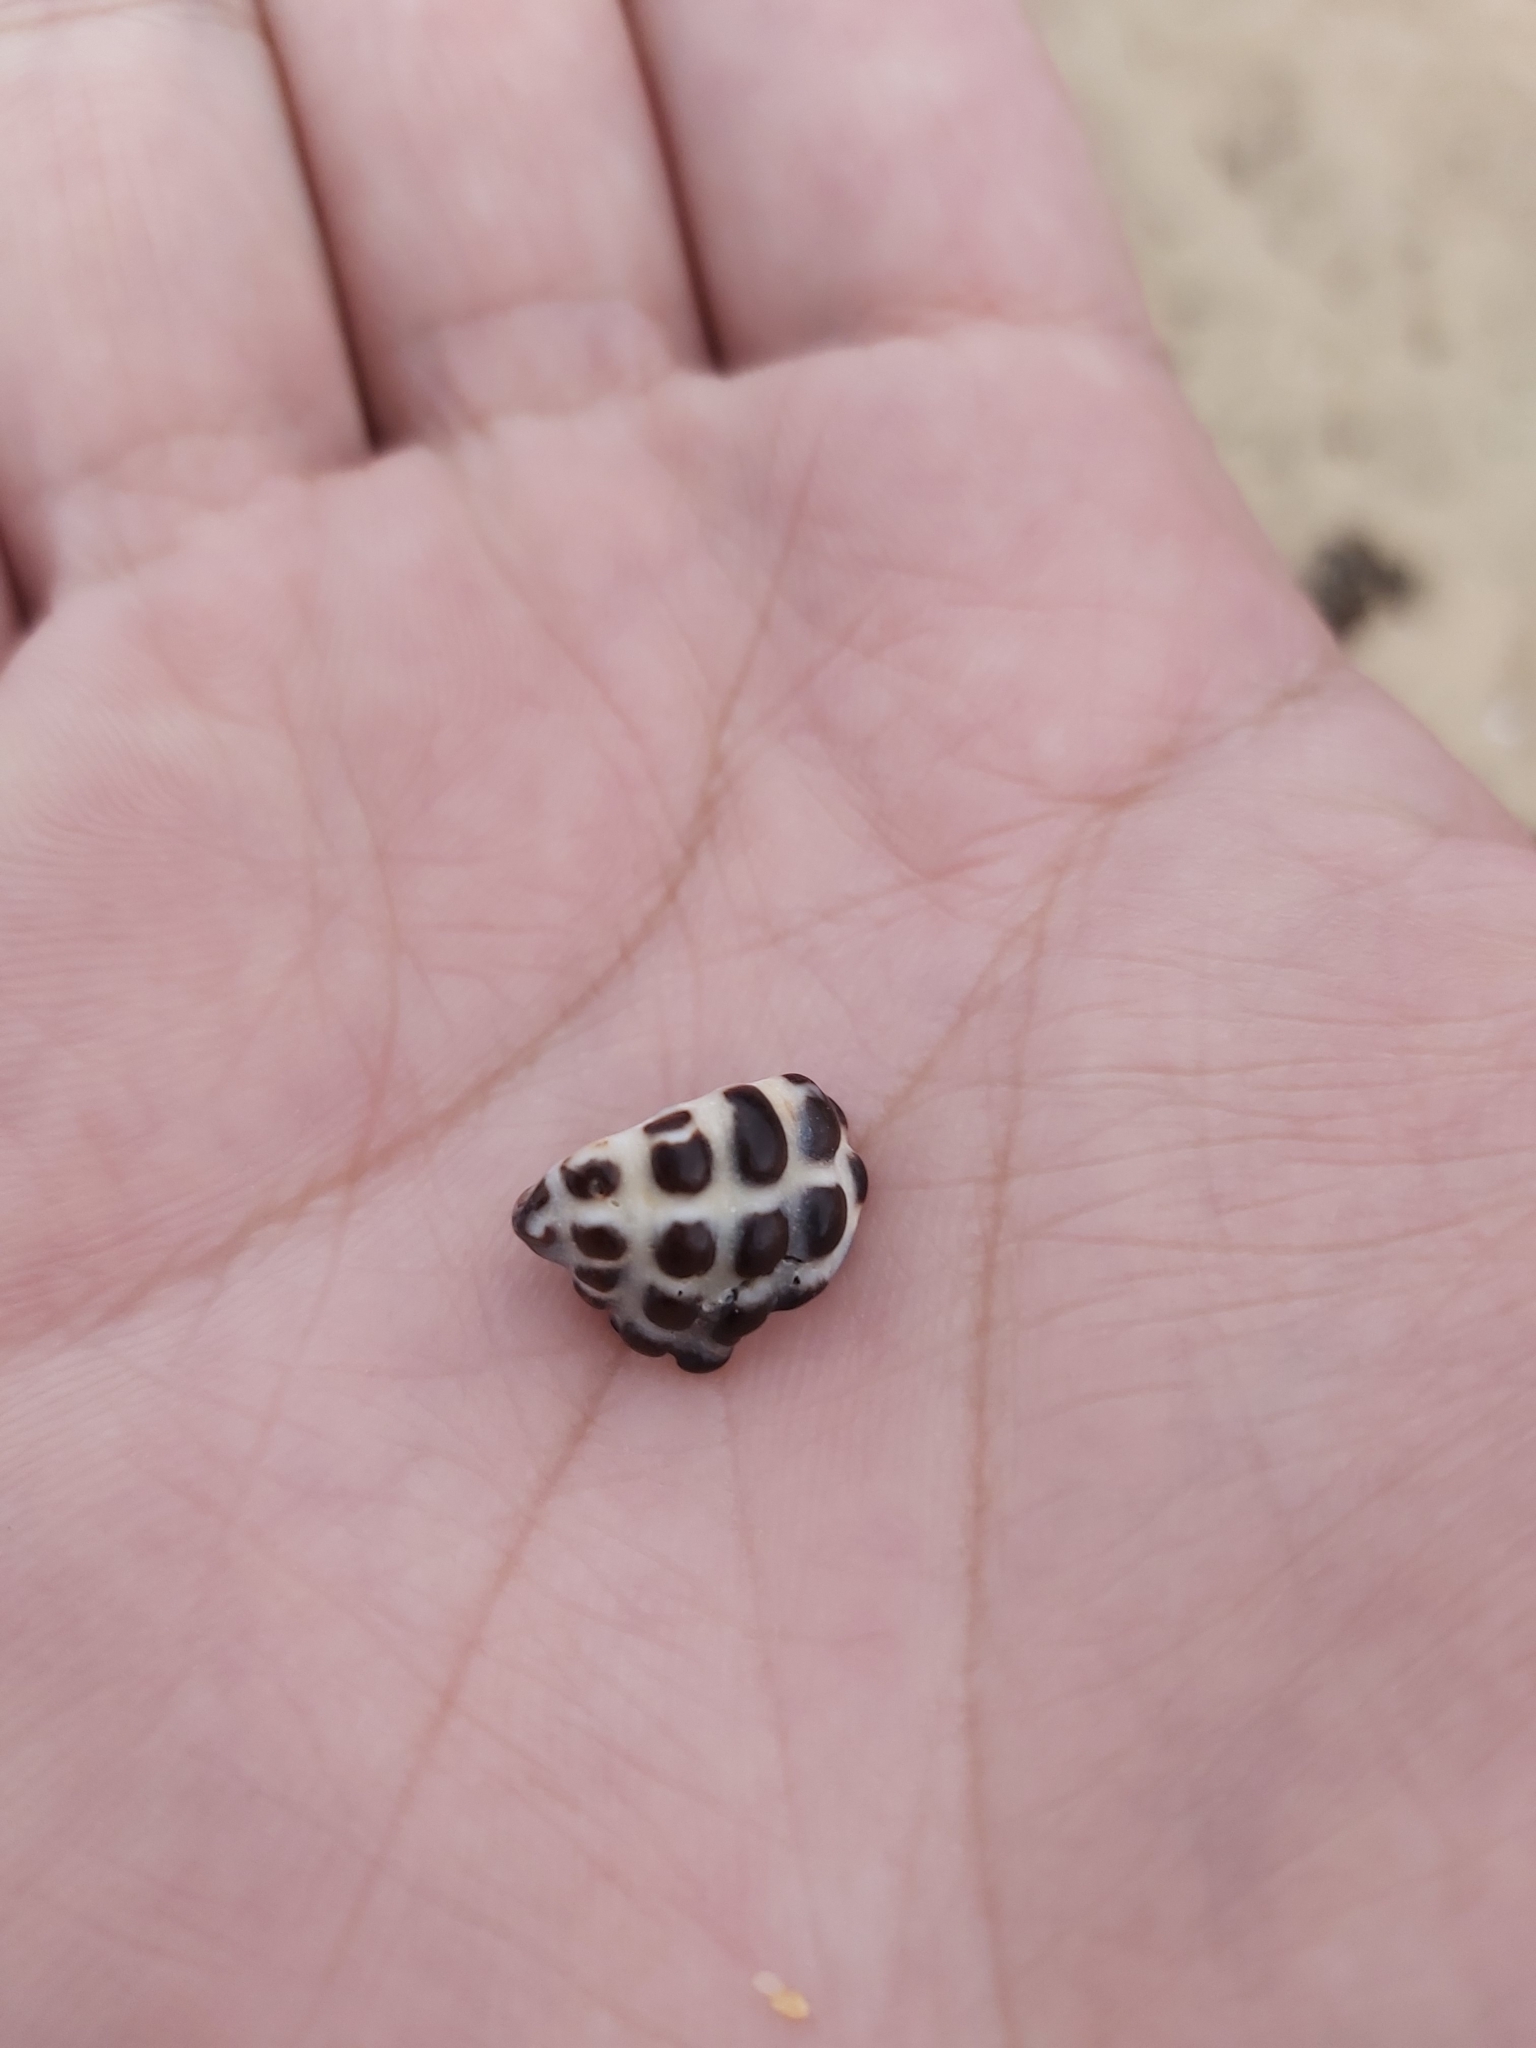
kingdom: Animalia
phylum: Mollusca
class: Gastropoda
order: Neogastropoda
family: Muricidae
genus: Tenguella
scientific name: Tenguella marginalba
